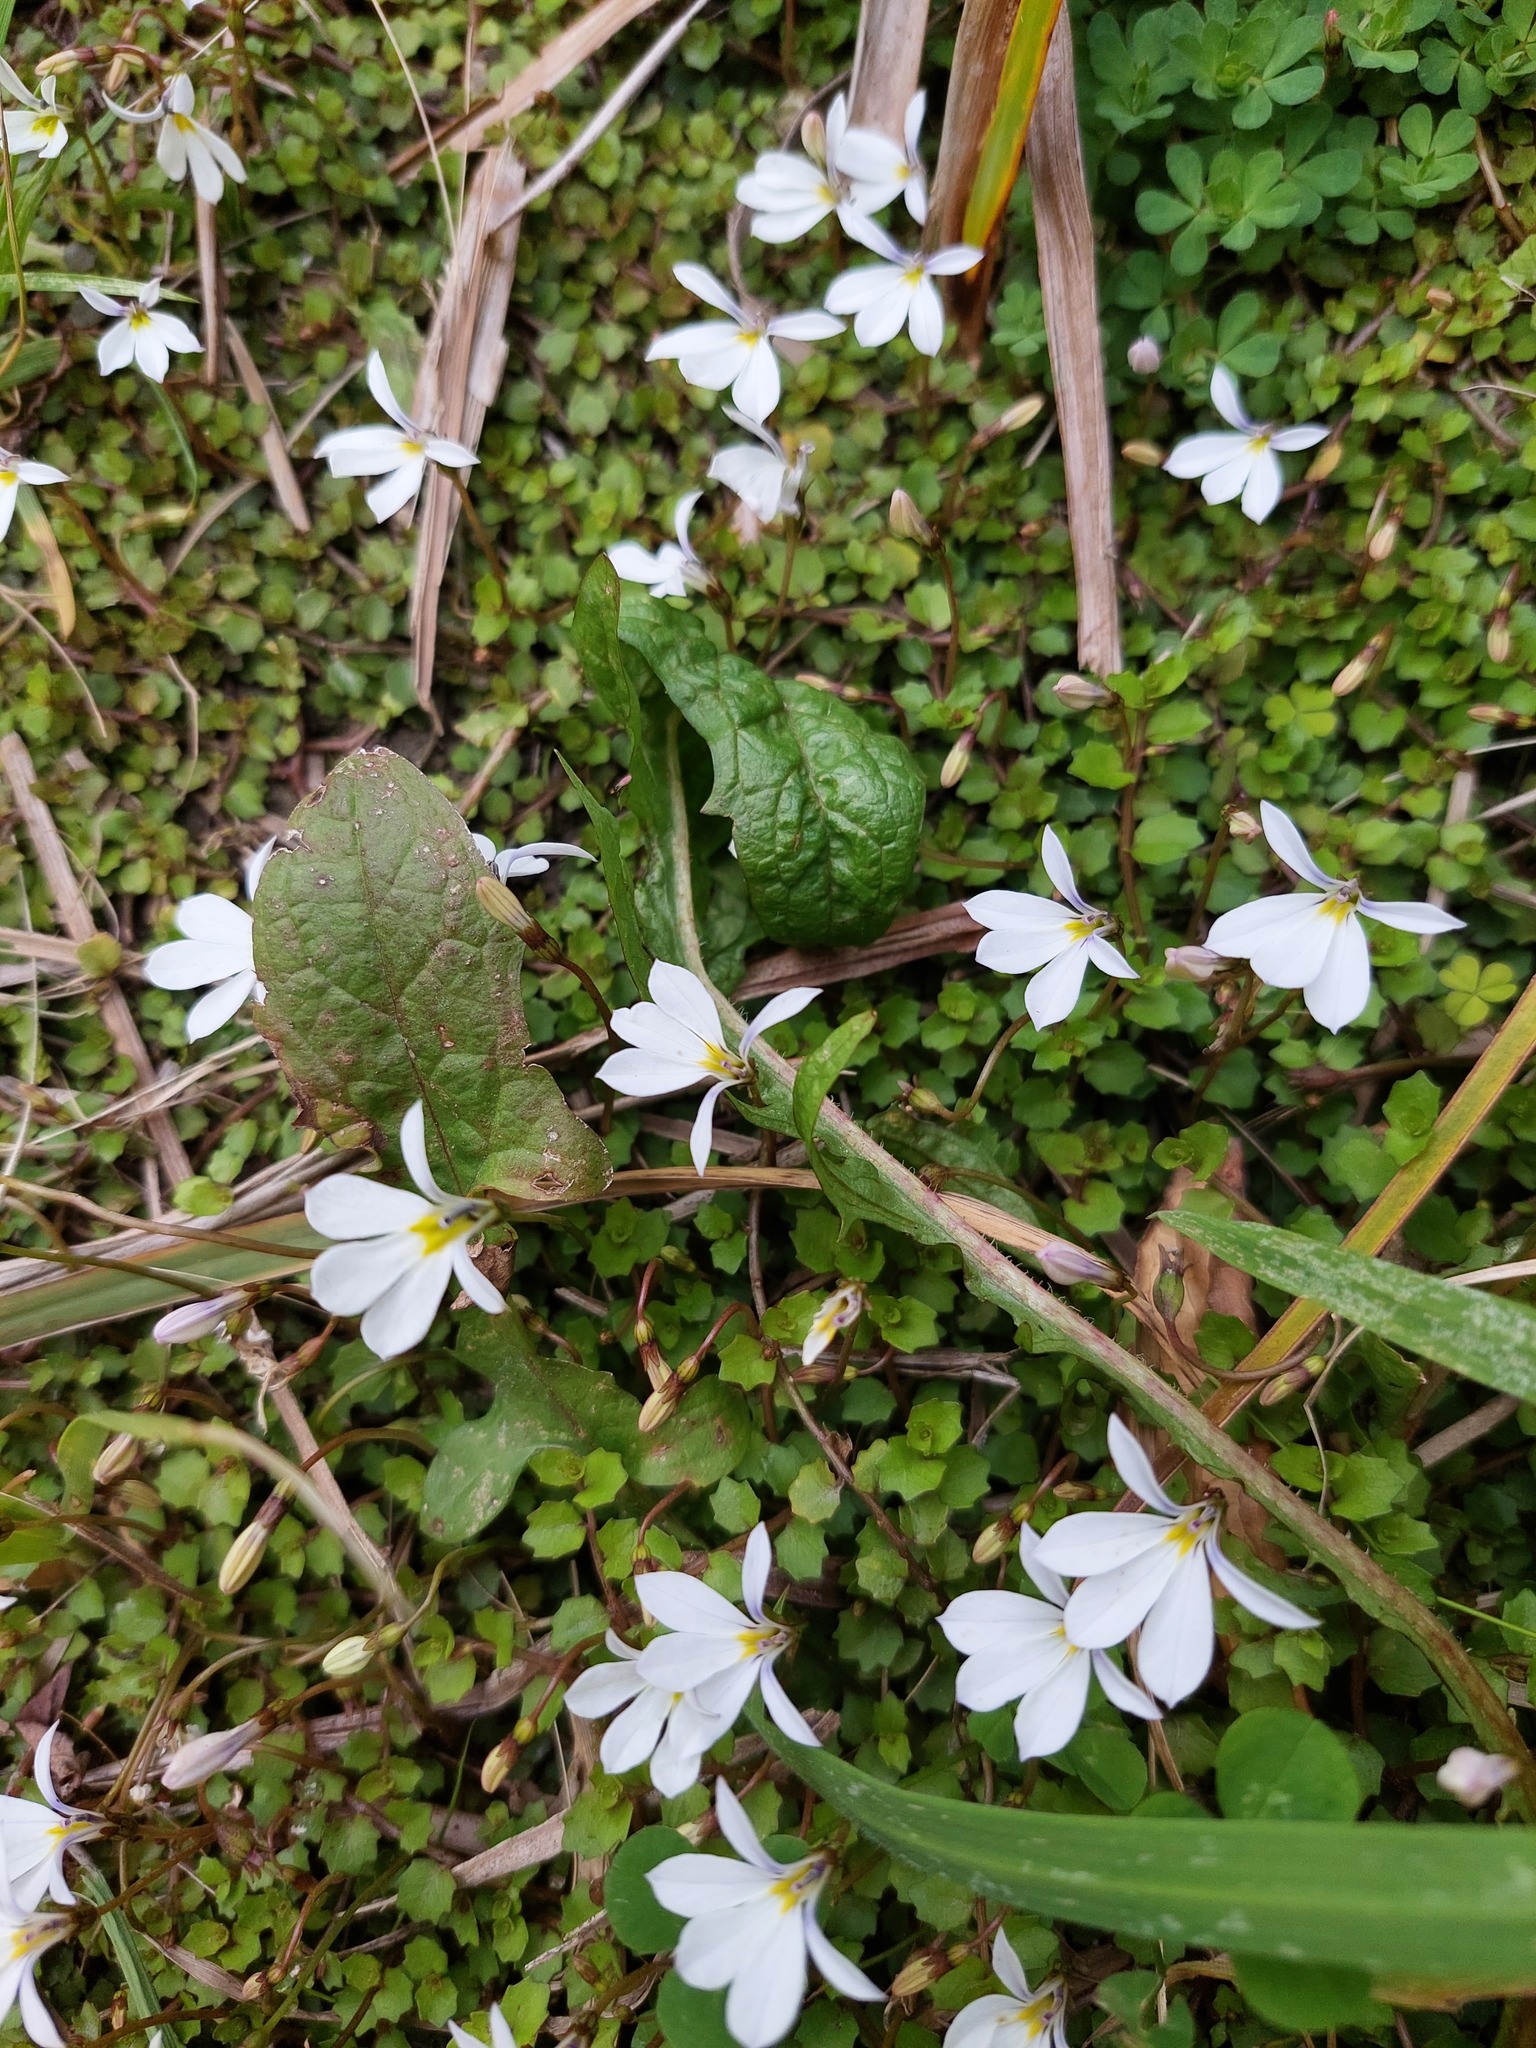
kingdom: Plantae
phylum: Tracheophyta
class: Magnoliopsida
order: Asterales
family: Campanulaceae
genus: Lobelia
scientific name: Lobelia angulata
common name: Lawn lobelia
